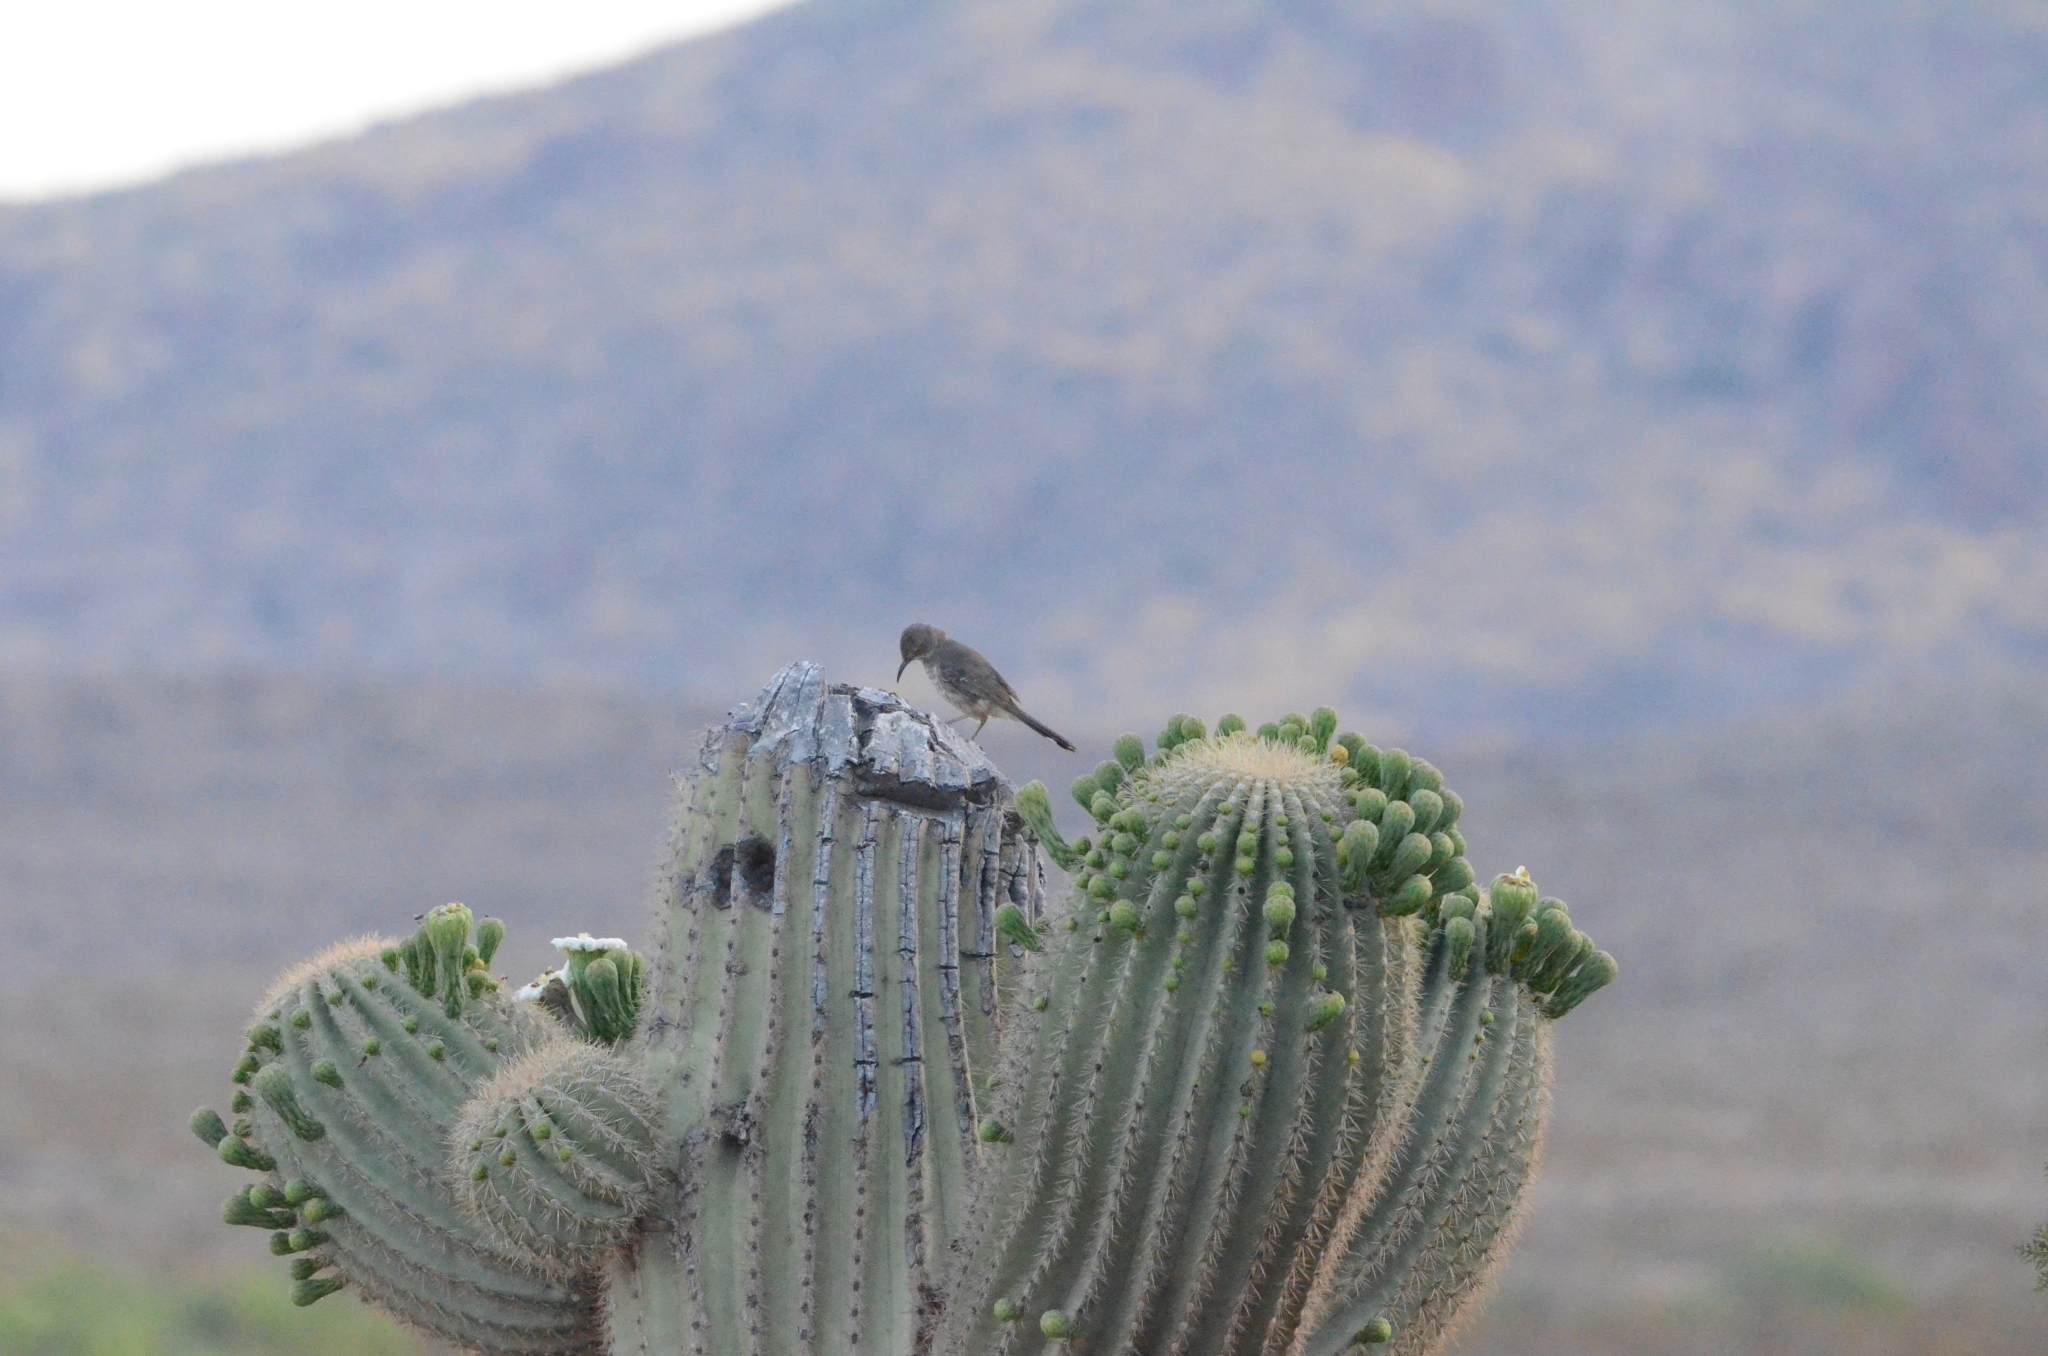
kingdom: Animalia
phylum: Chordata
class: Aves
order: Passeriformes
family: Mimidae
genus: Toxostoma
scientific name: Toxostoma curvirostre
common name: Curve-billed thrasher
